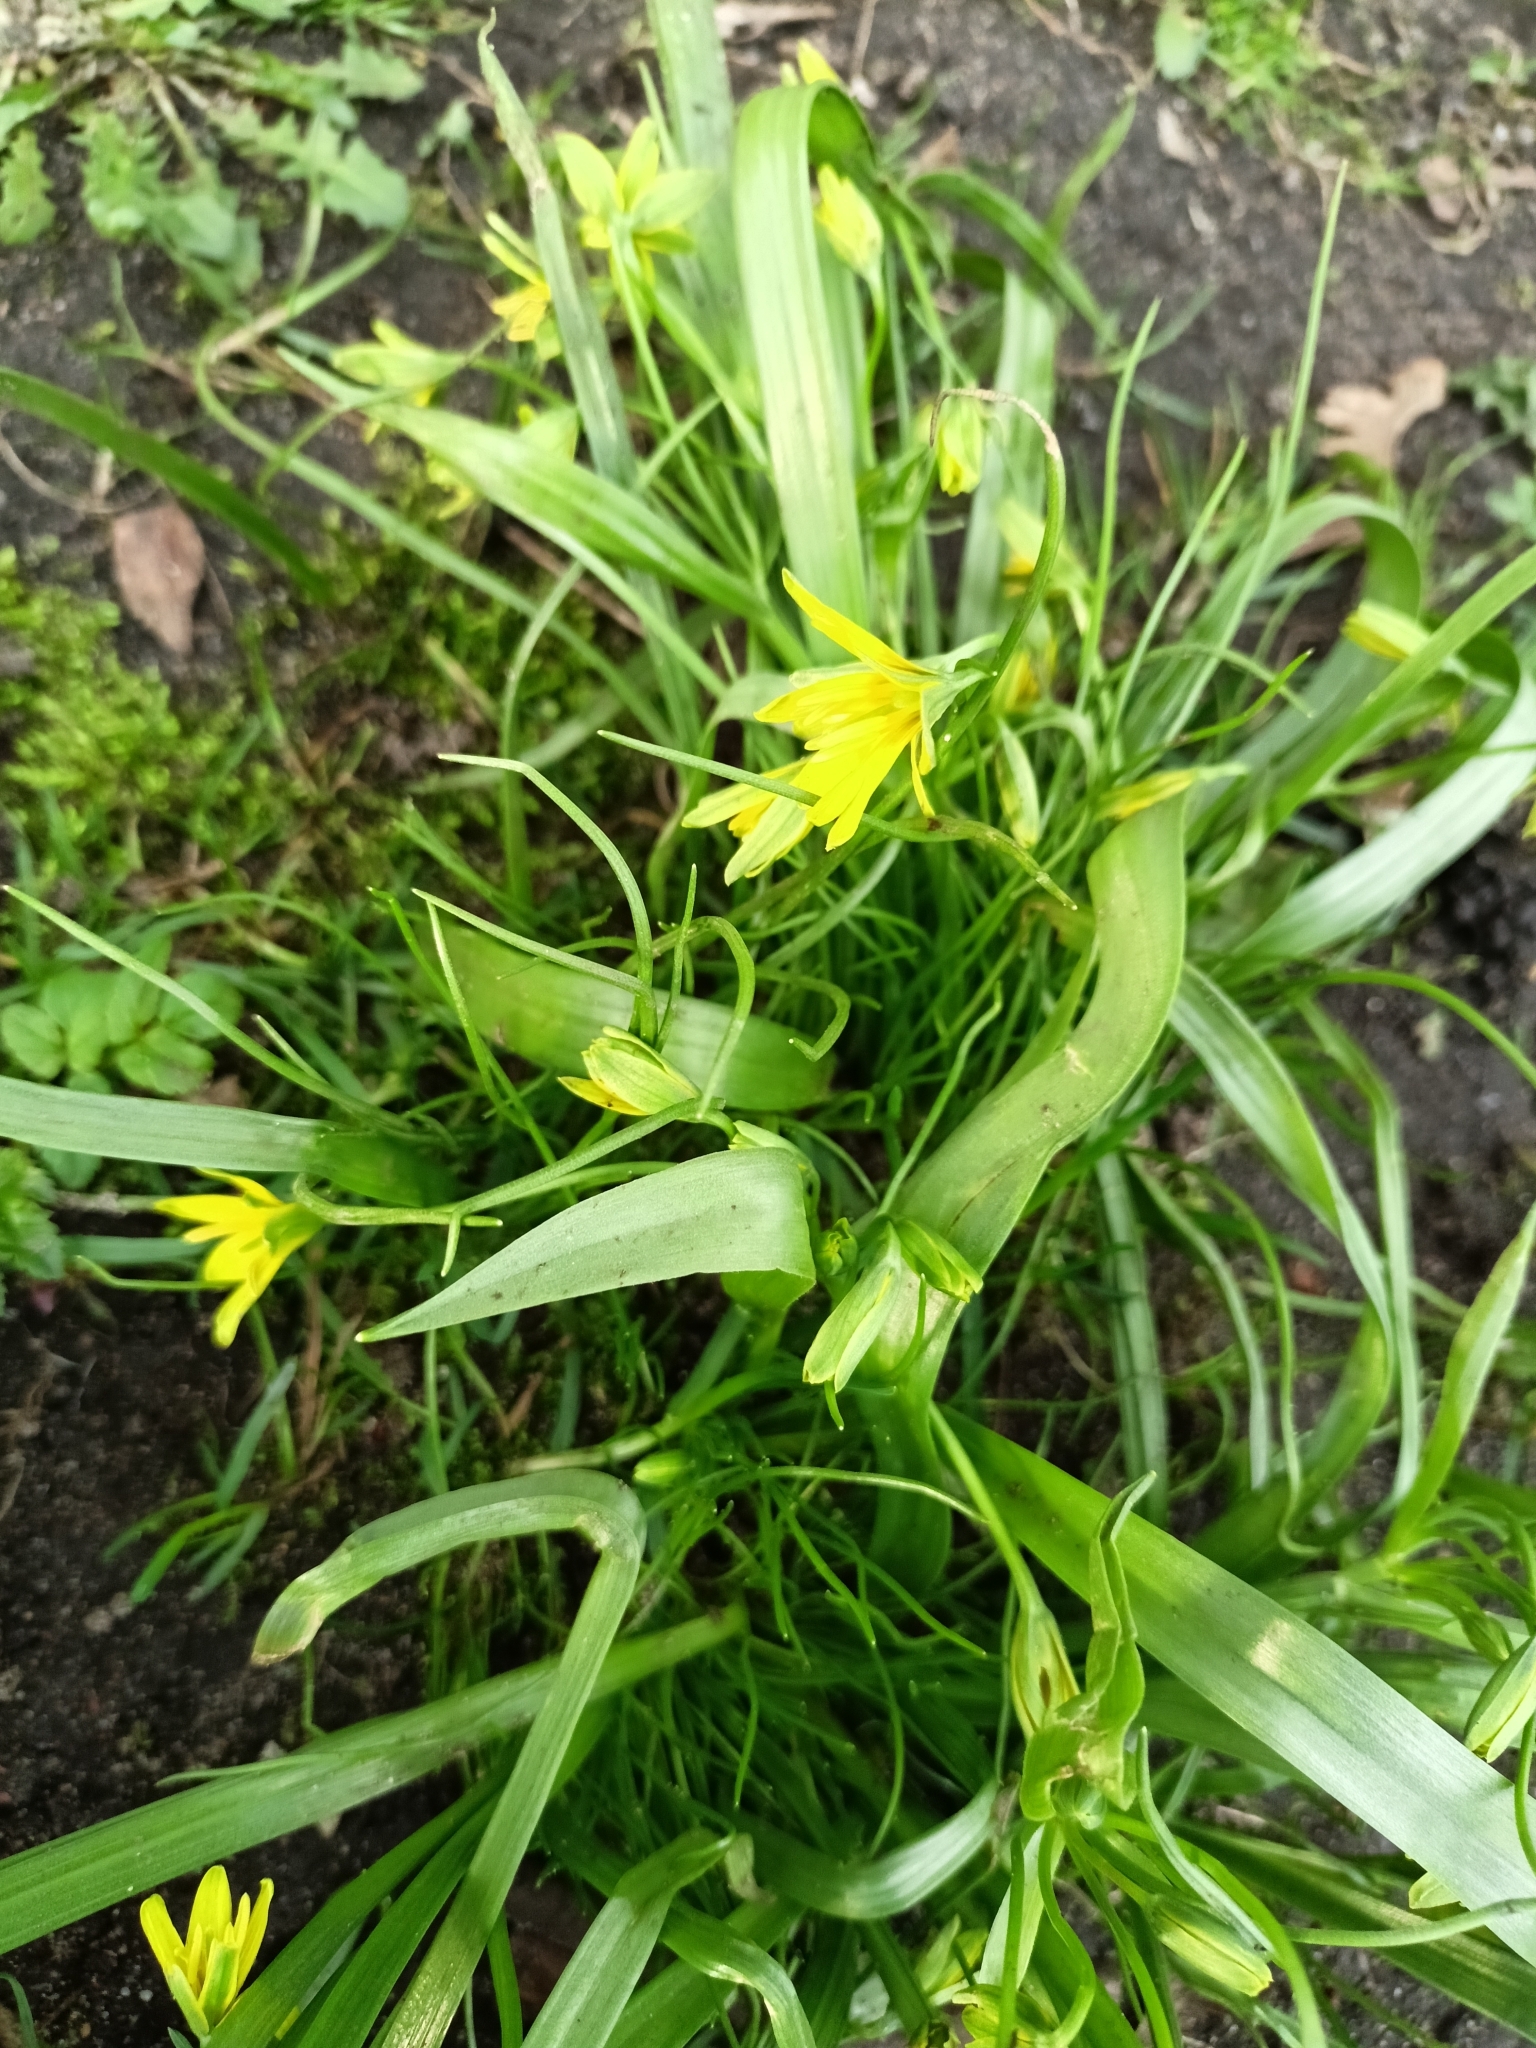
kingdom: Plantae
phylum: Tracheophyta
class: Liliopsida
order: Liliales
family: Liliaceae
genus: Gagea
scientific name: Gagea lutea
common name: Yellow star-of-bethlehem
